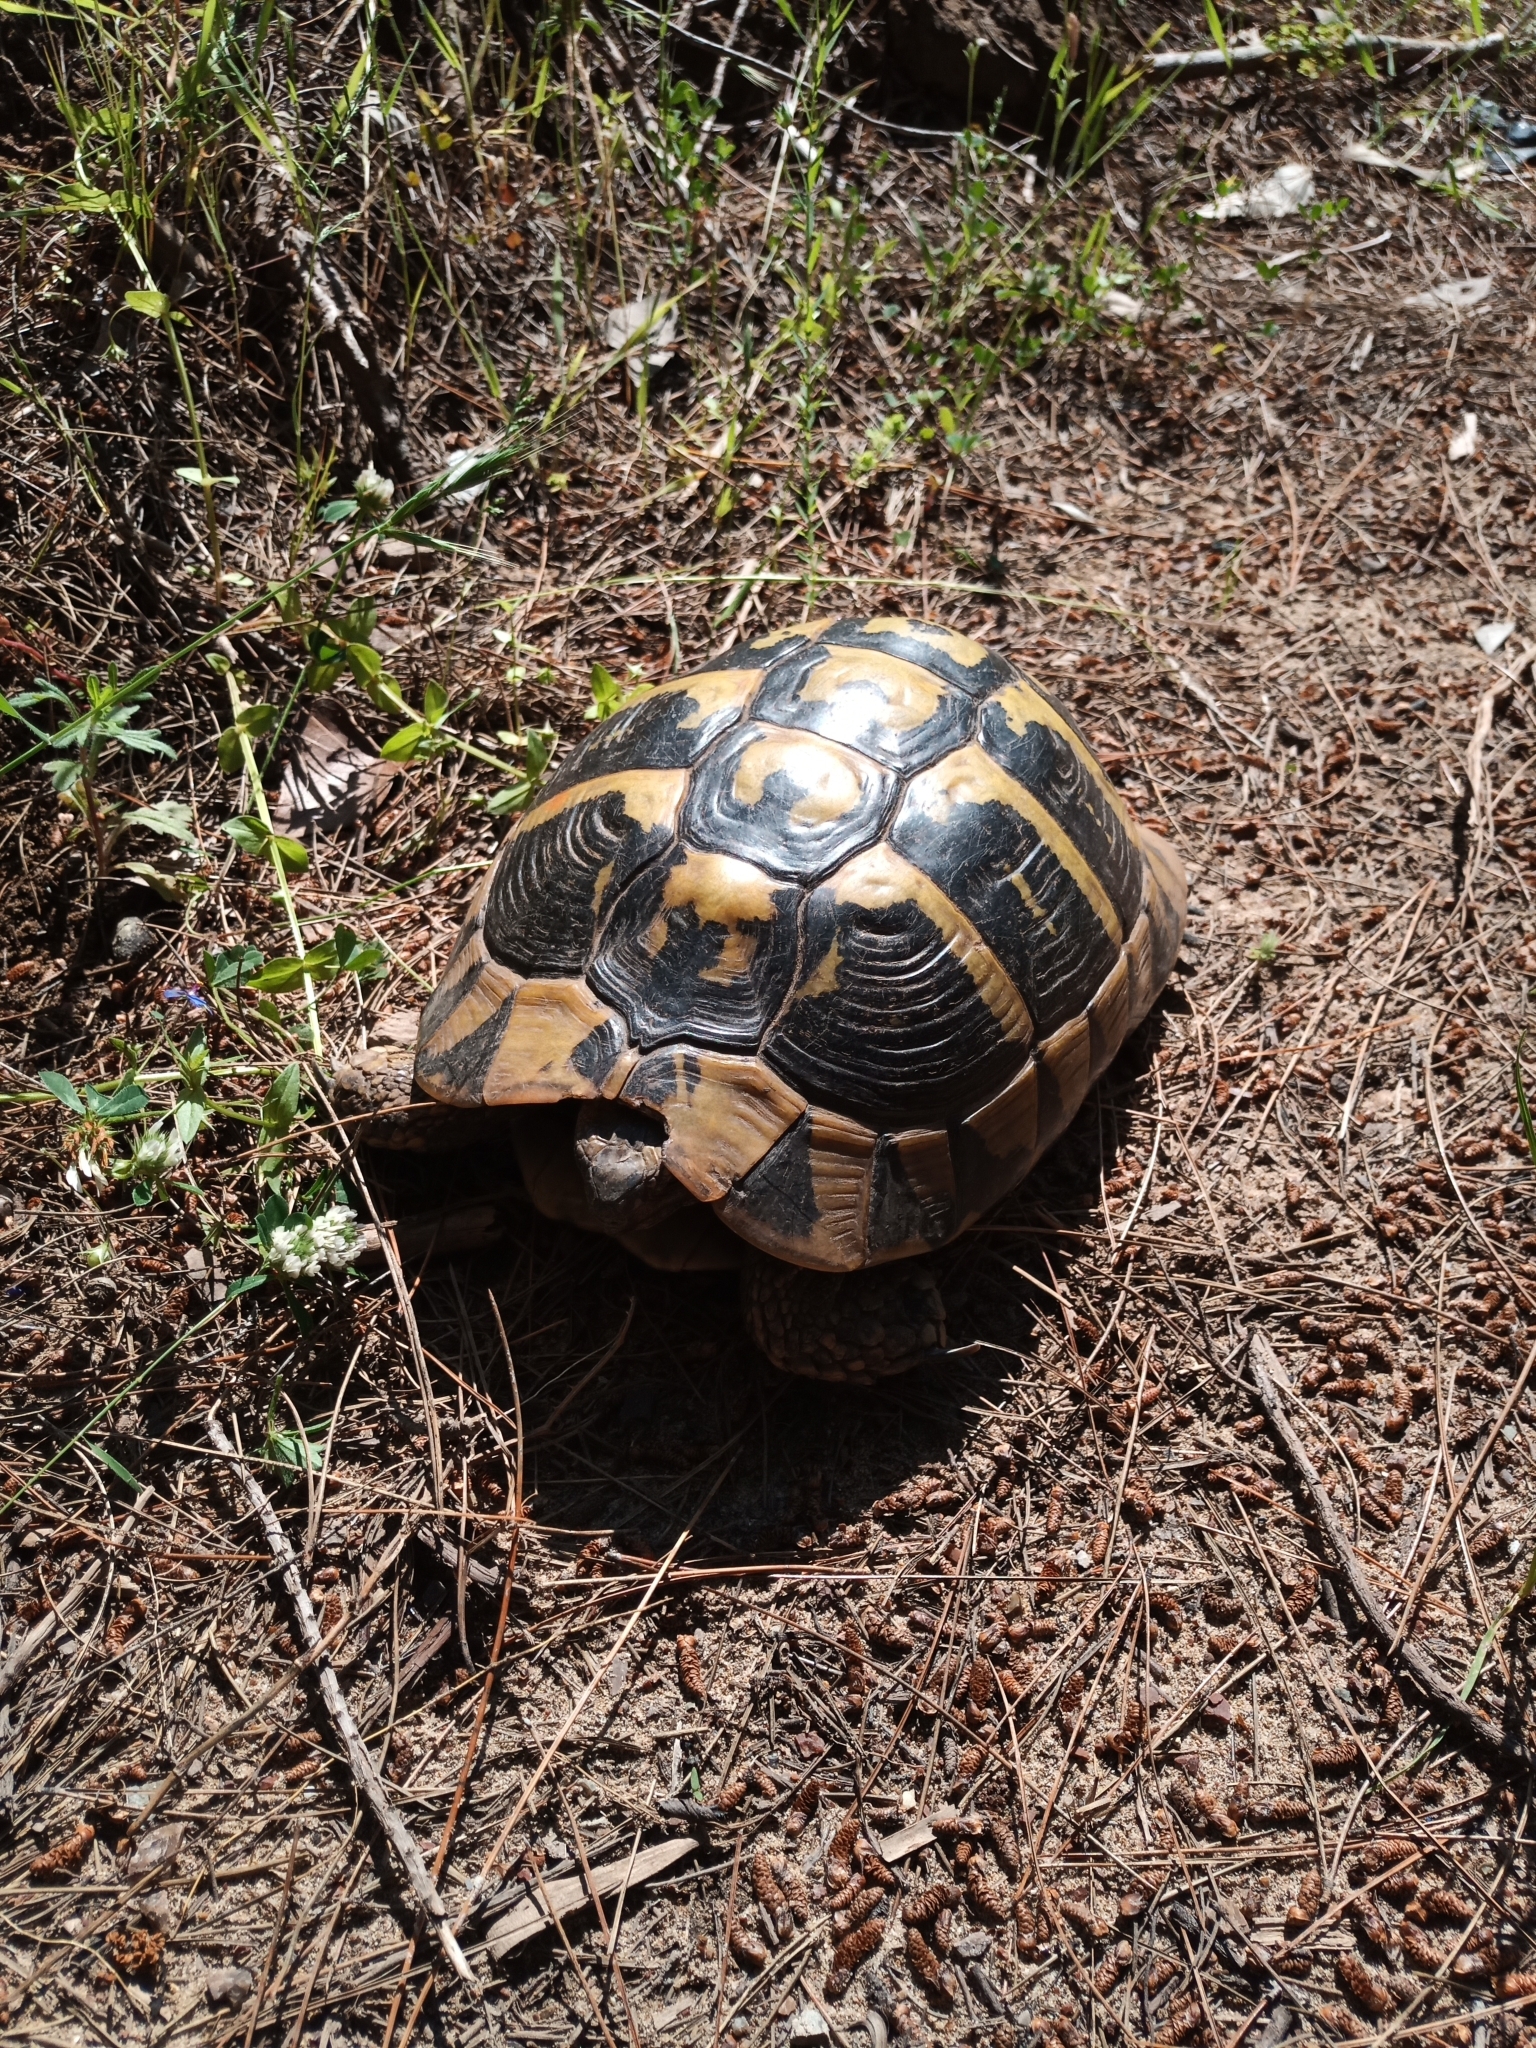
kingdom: Animalia
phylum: Chordata
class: Testudines
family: Testudinidae
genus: Testudo
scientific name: Testudo hermanni
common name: Hermann's tortoise
